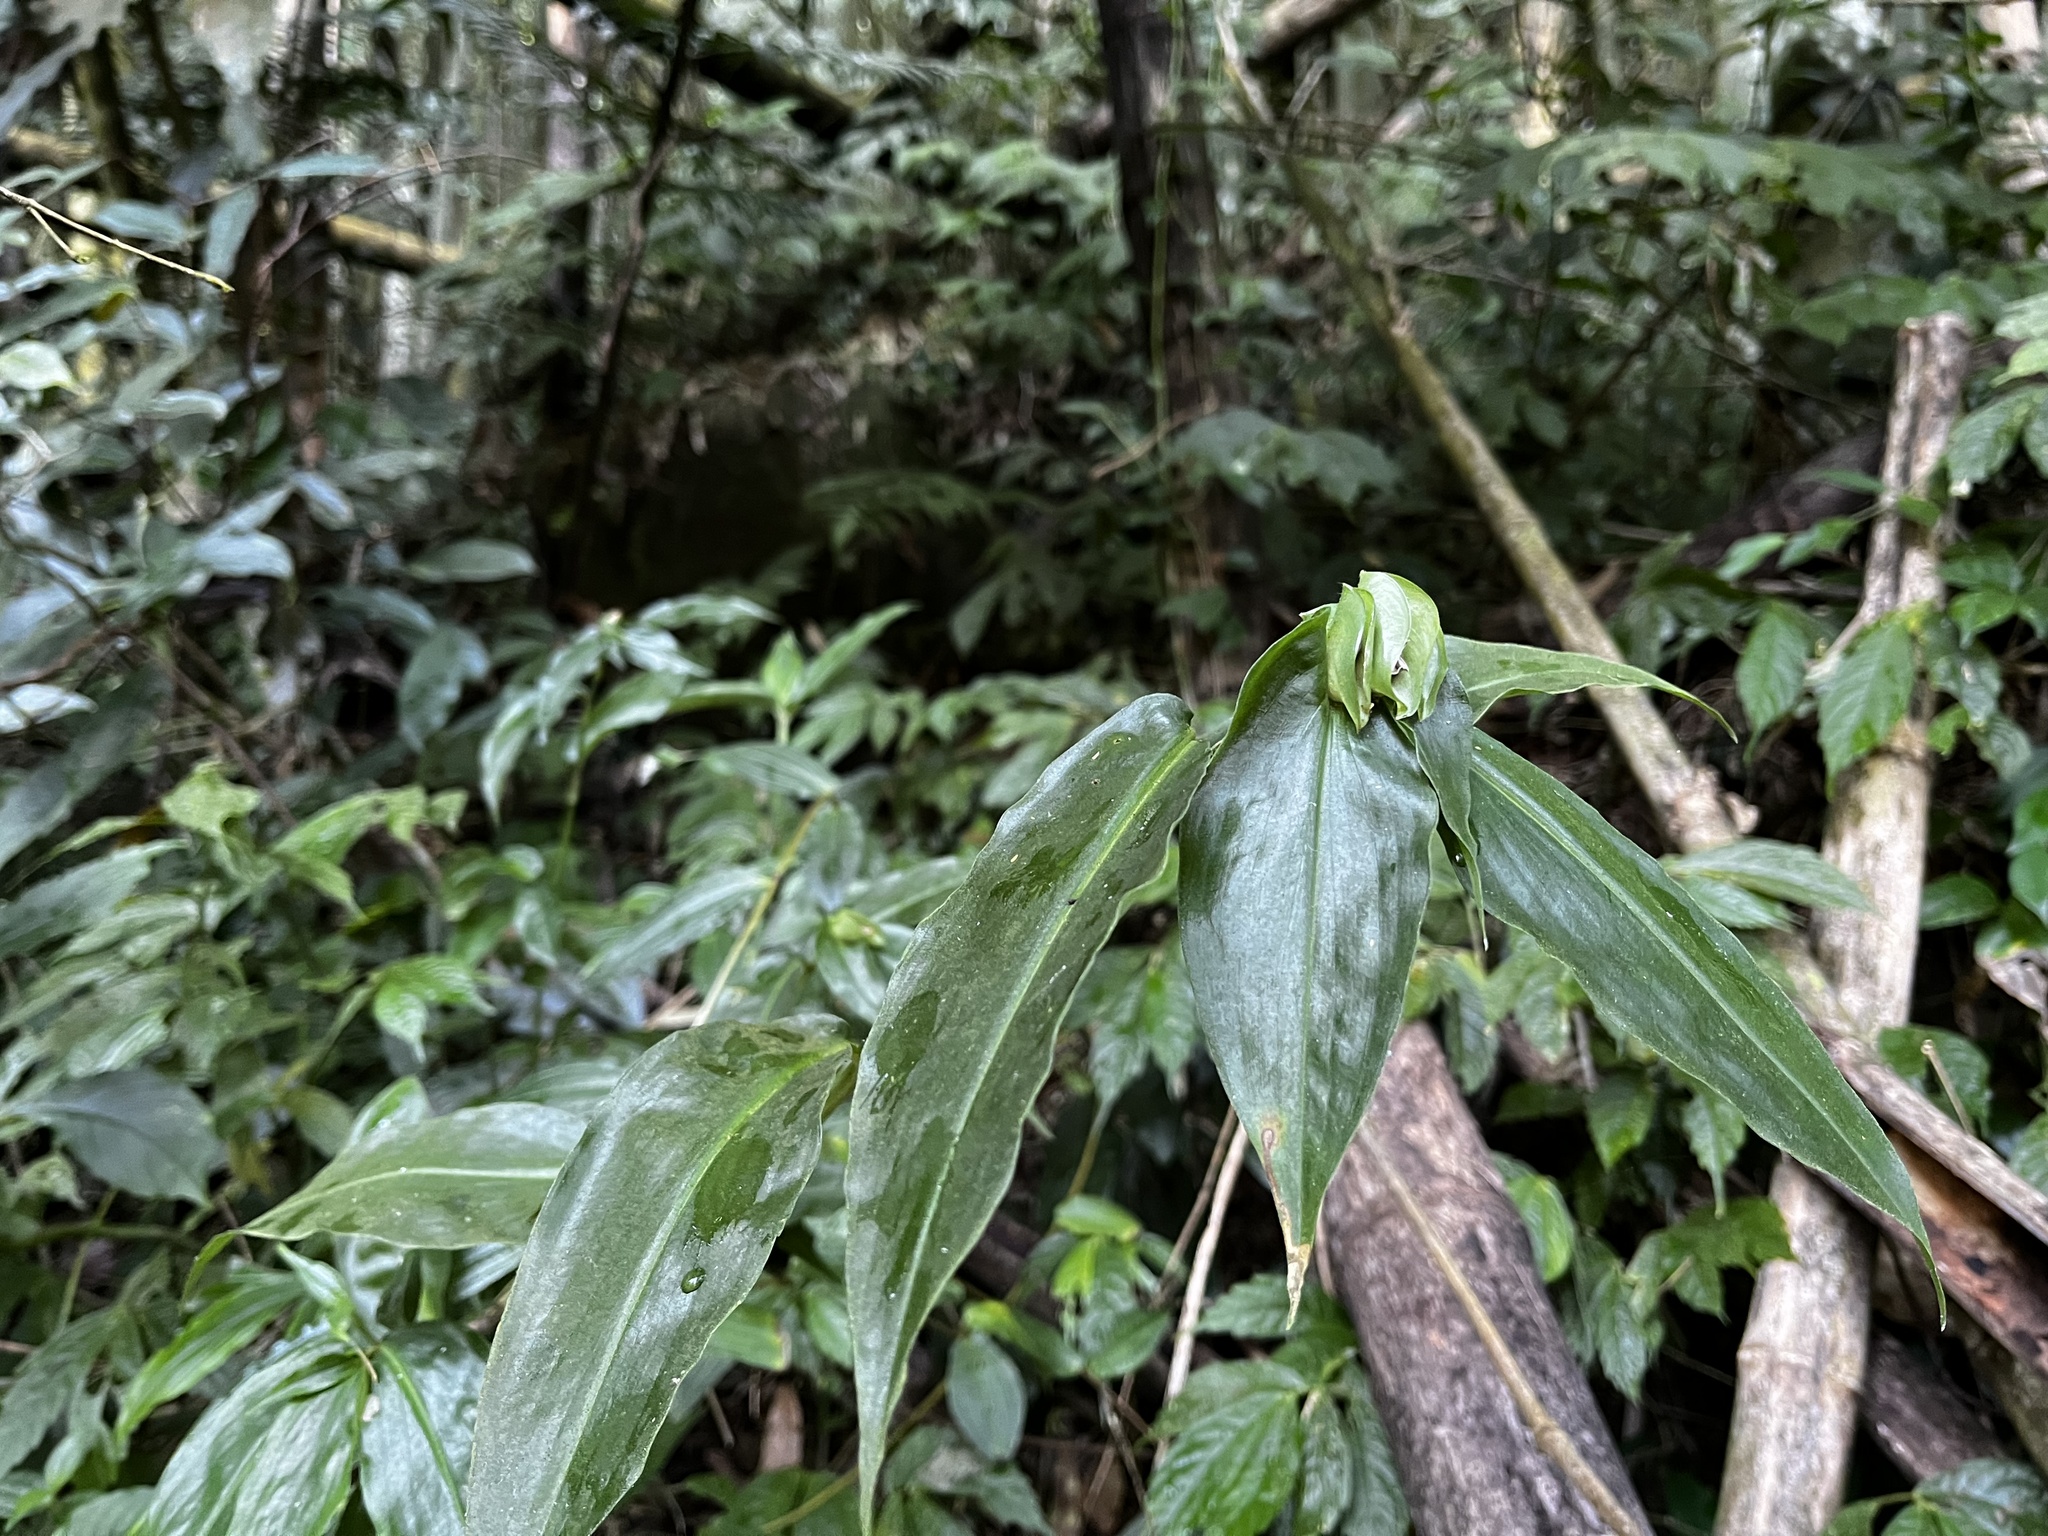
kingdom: Plantae
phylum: Tracheophyta
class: Liliopsida
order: Commelinales
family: Commelinaceae
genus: Commelina
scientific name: Commelina paludosa
